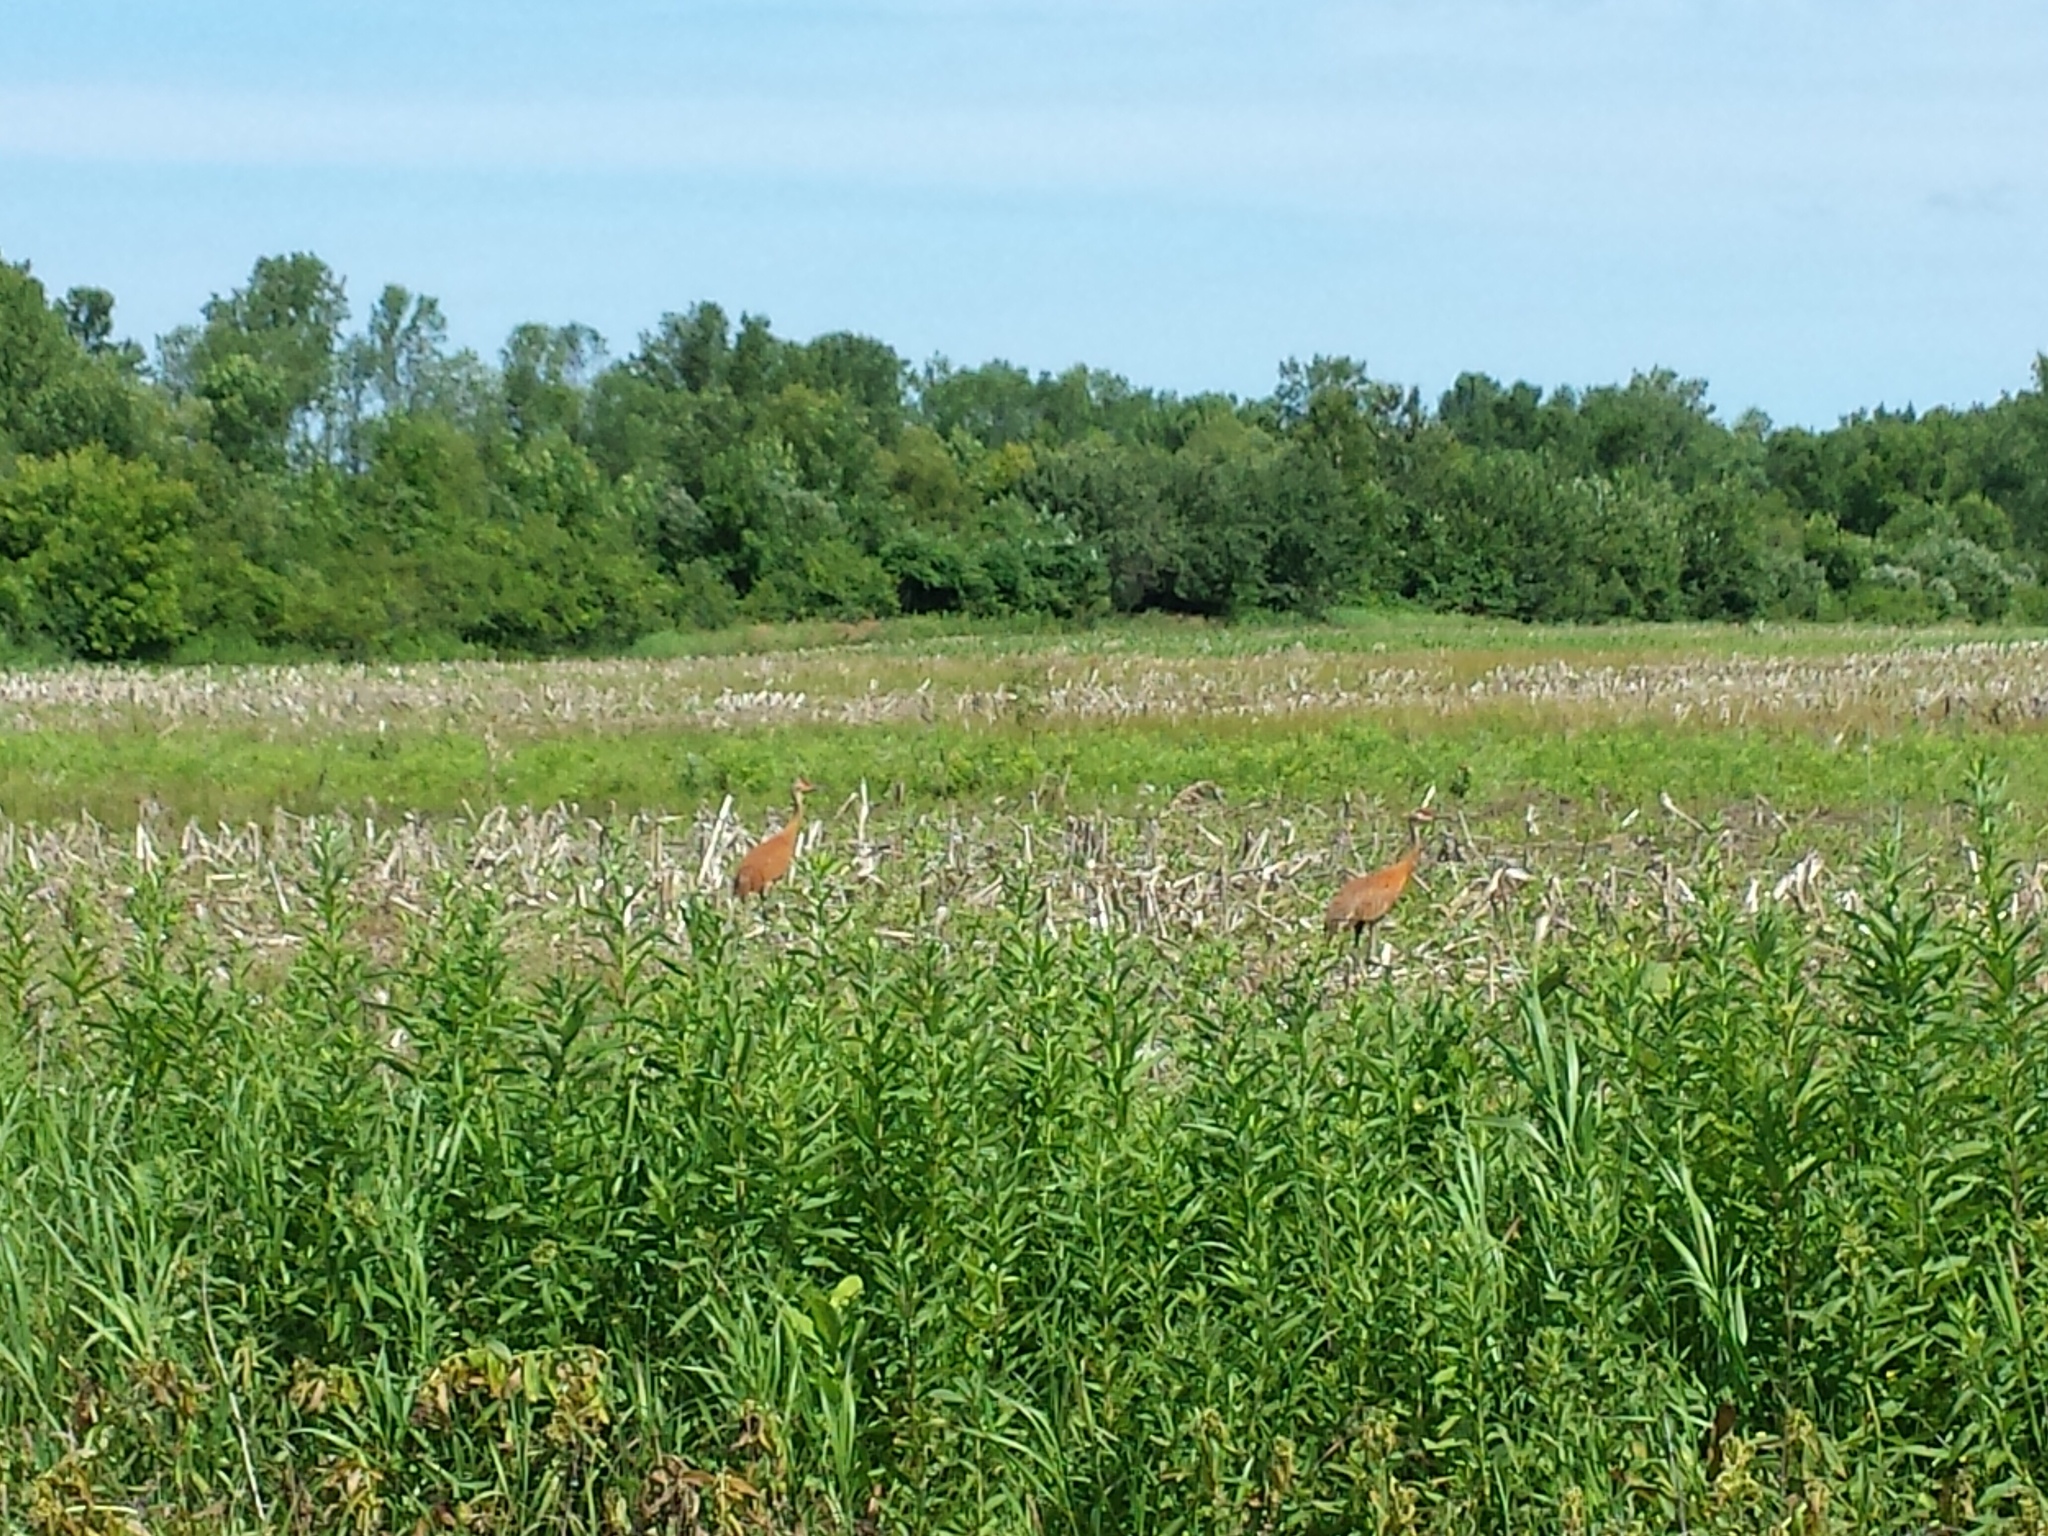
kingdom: Animalia
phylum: Chordata
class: Aves
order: Gruiformes
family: Gruidae
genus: Grus
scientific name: Grus canadensis
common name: Sandhill crane
